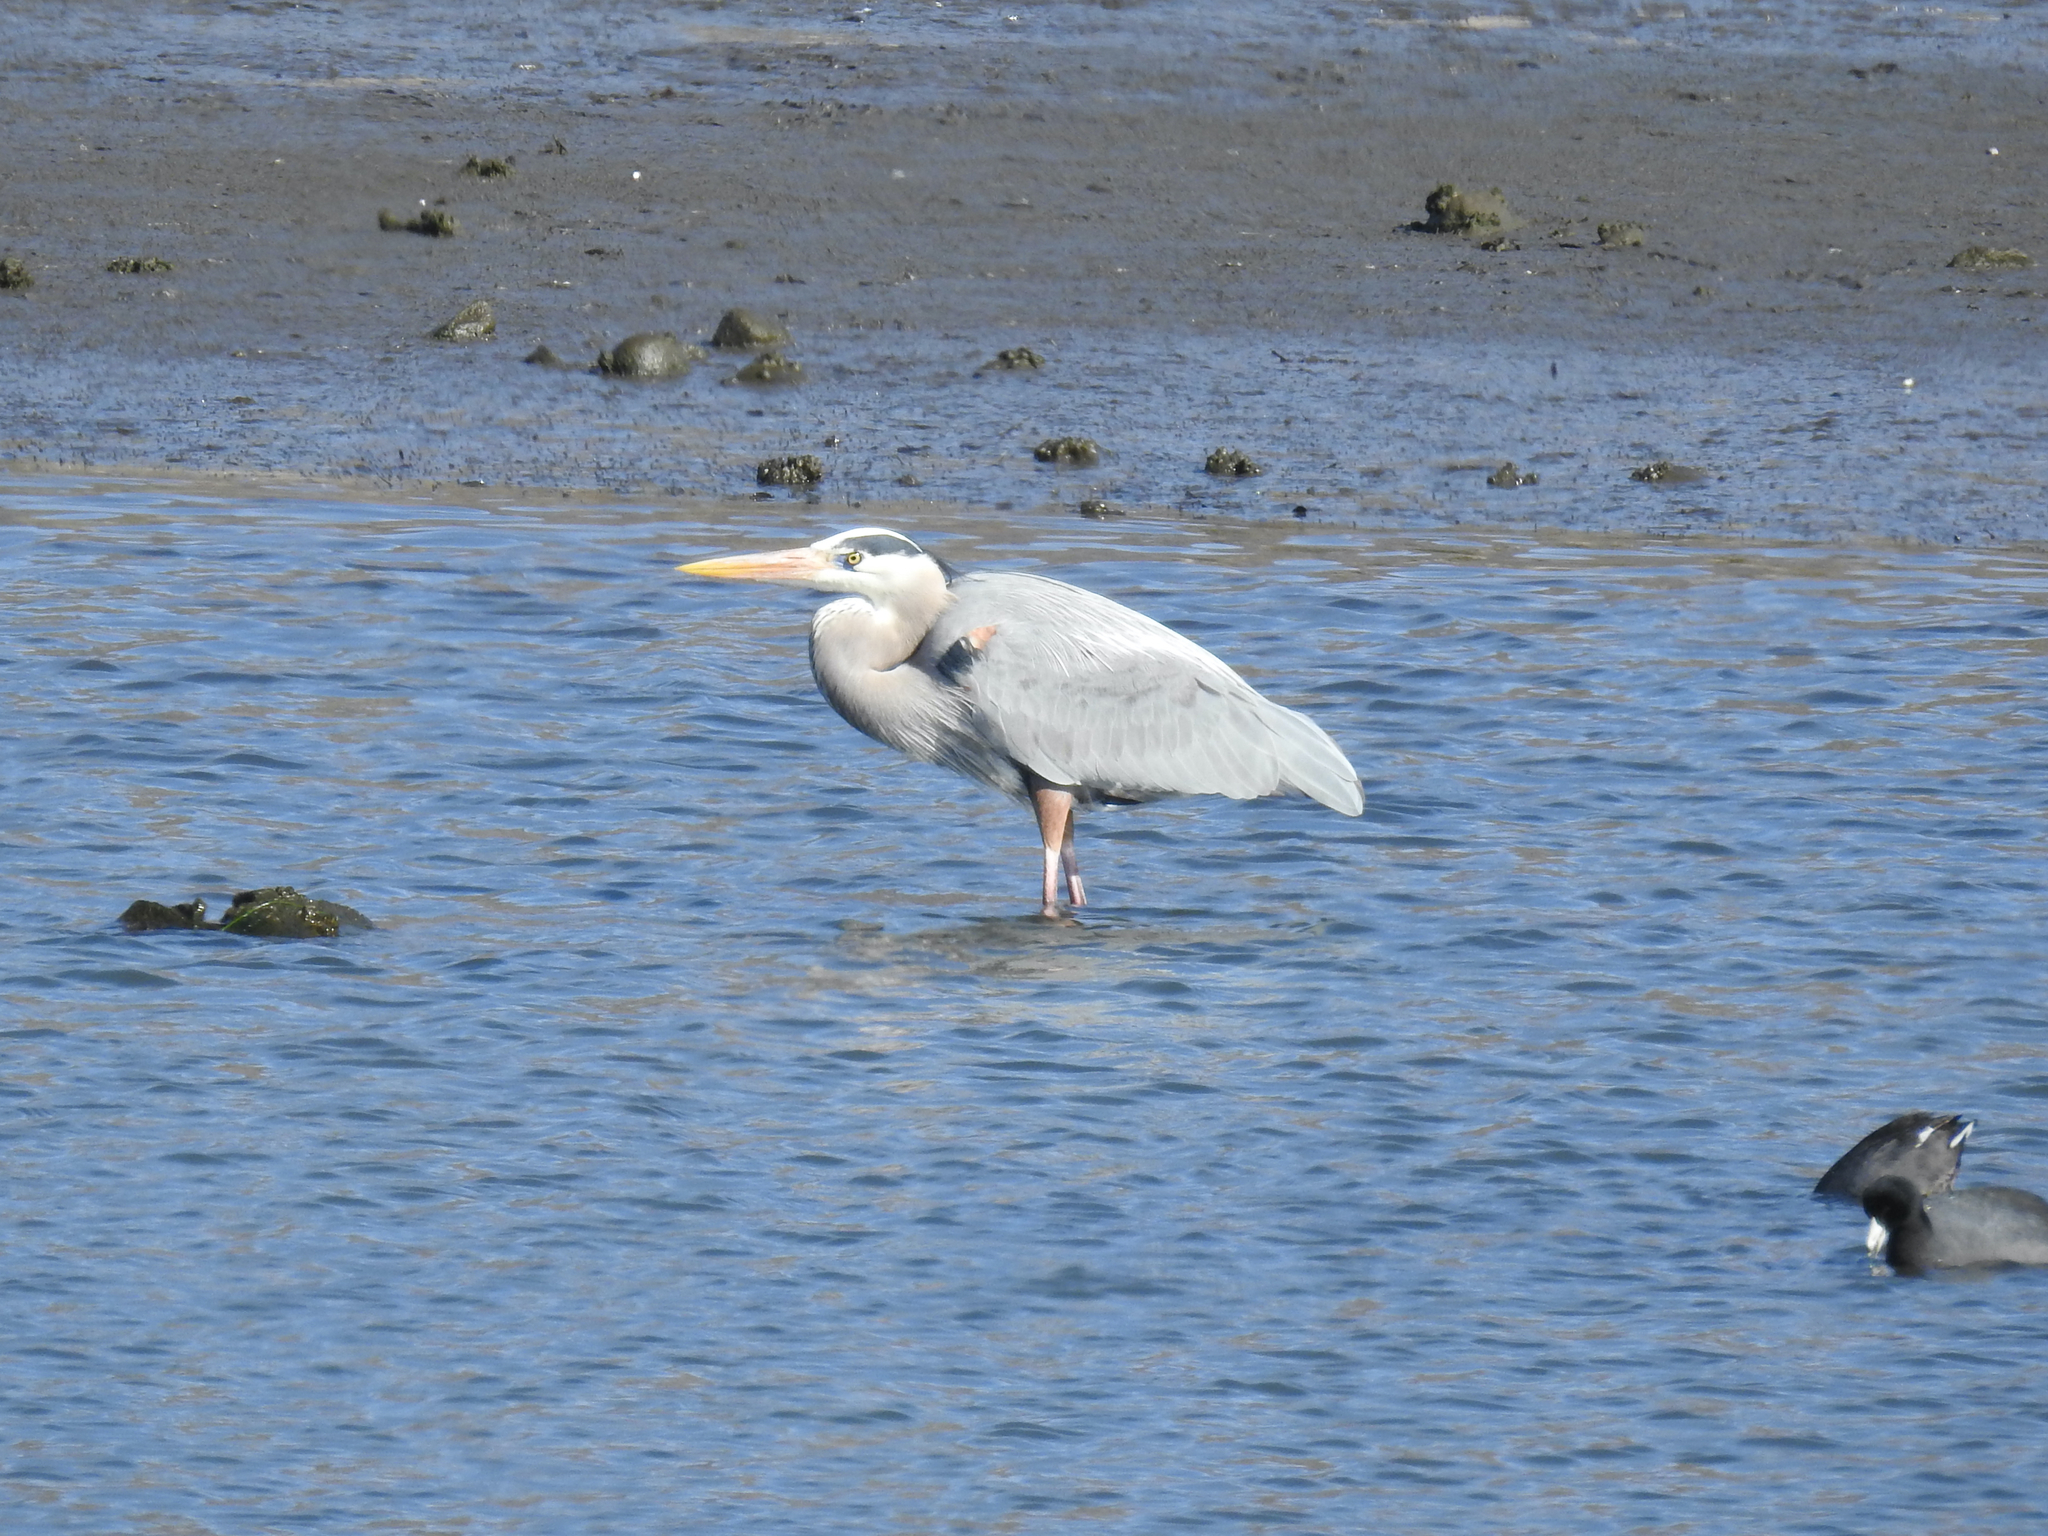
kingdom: Animalia
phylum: Chordata
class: Aves
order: Pelecaniformes
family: Ardeidae
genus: Ardea
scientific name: Ardea herodias
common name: Great blue heron
